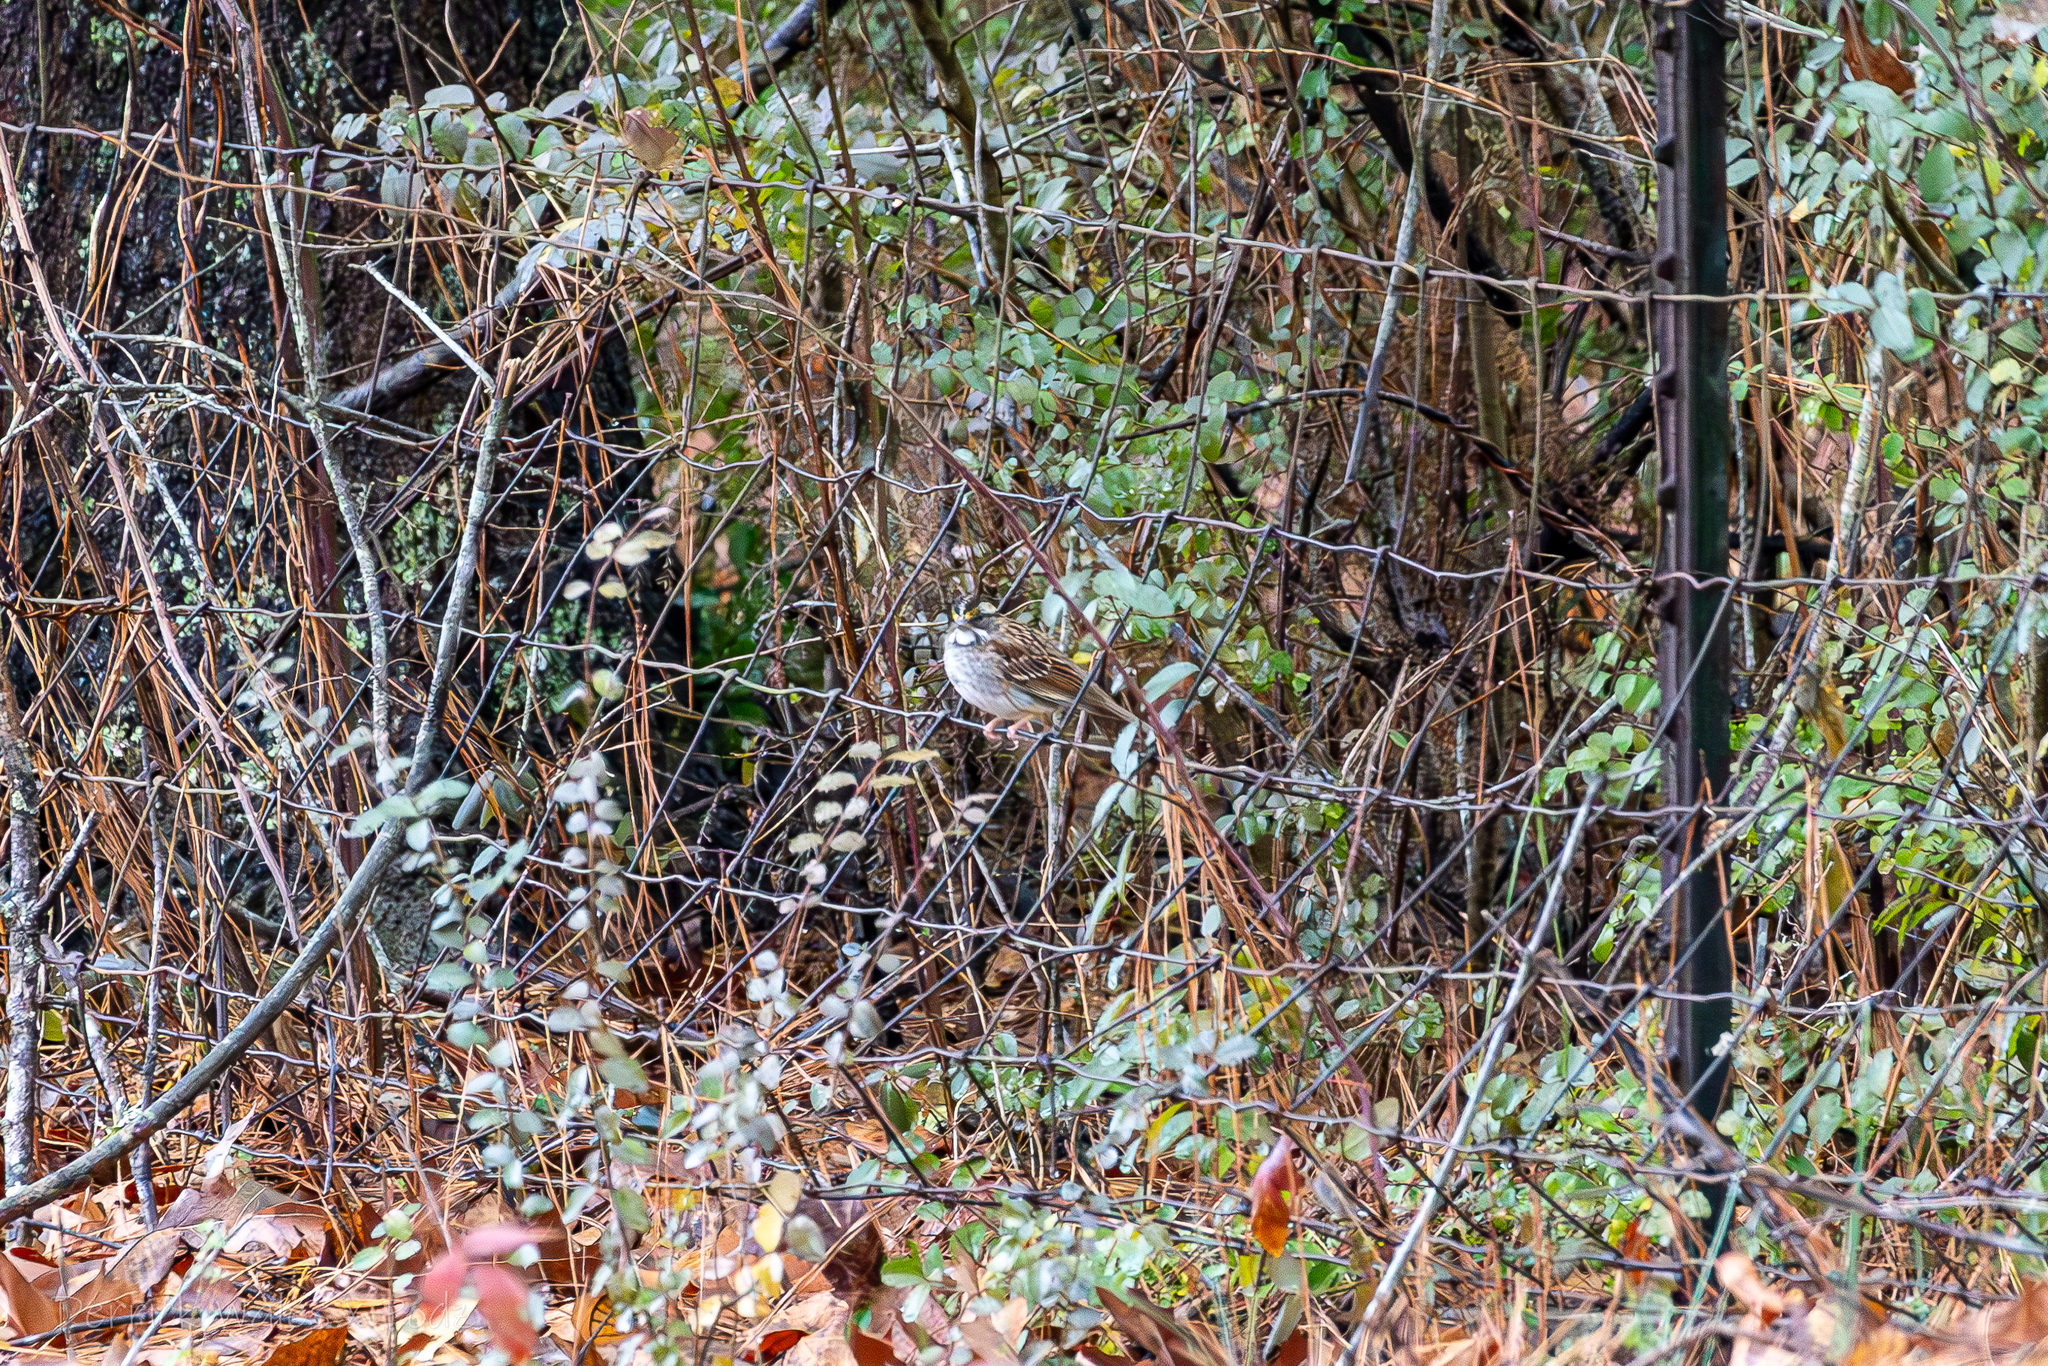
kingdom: Animalia
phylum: Chordata
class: Aves
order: Passeriformes
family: Passerellidae
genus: Zonotrichia
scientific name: Zonotrichia albicollis
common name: White-throated sparrow
